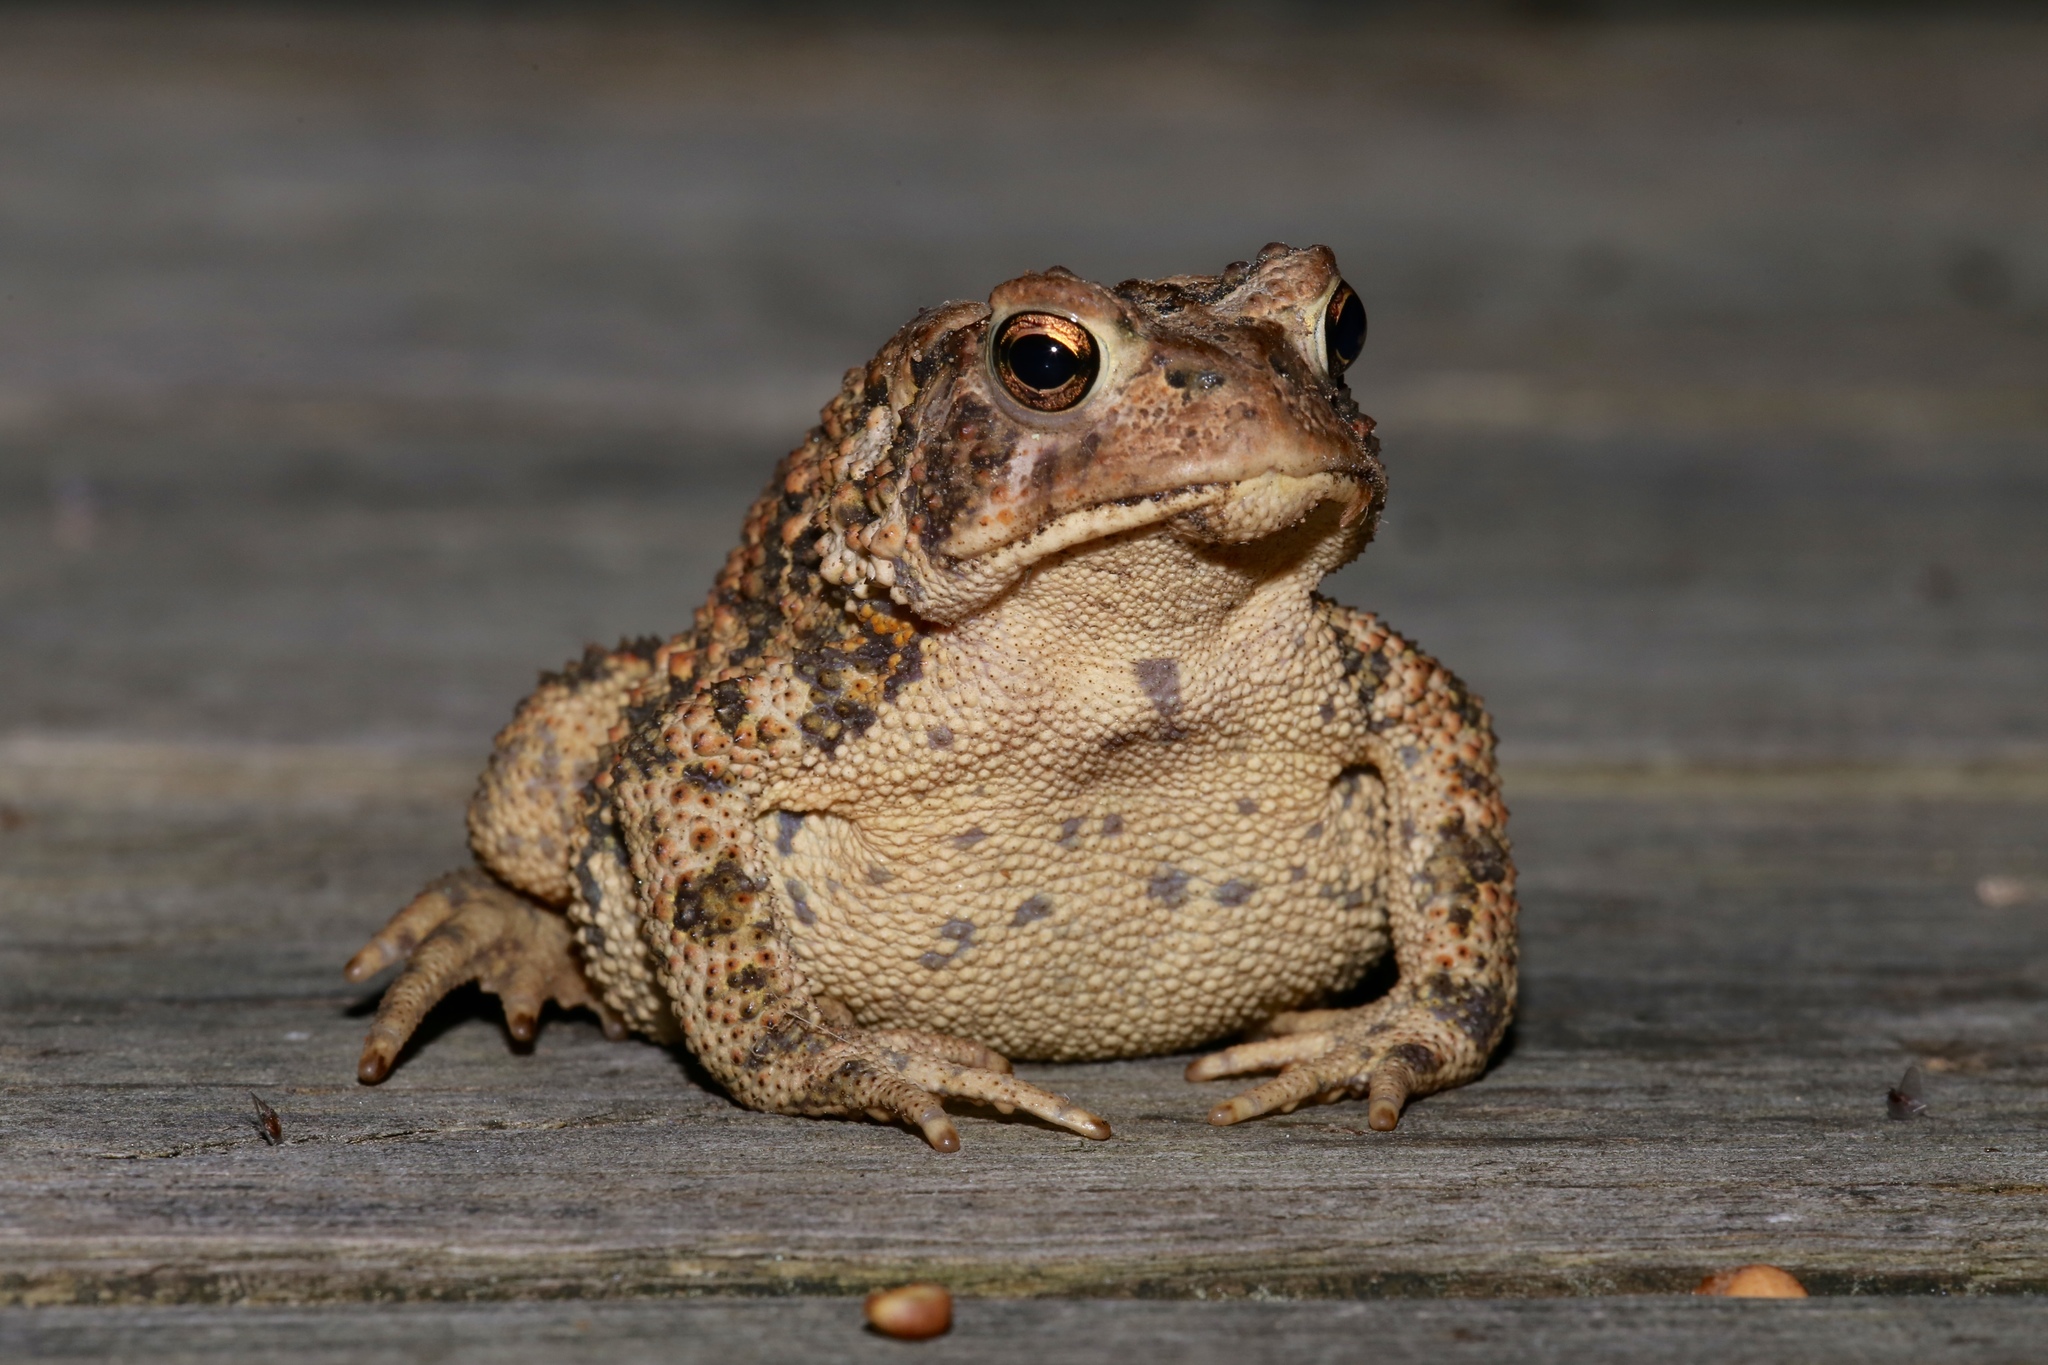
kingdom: Animalia
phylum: Chordata
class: Amphibia
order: Anura
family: Bufonidae
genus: Anaxyrus
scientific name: Anaxyrus americanus
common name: American toad
